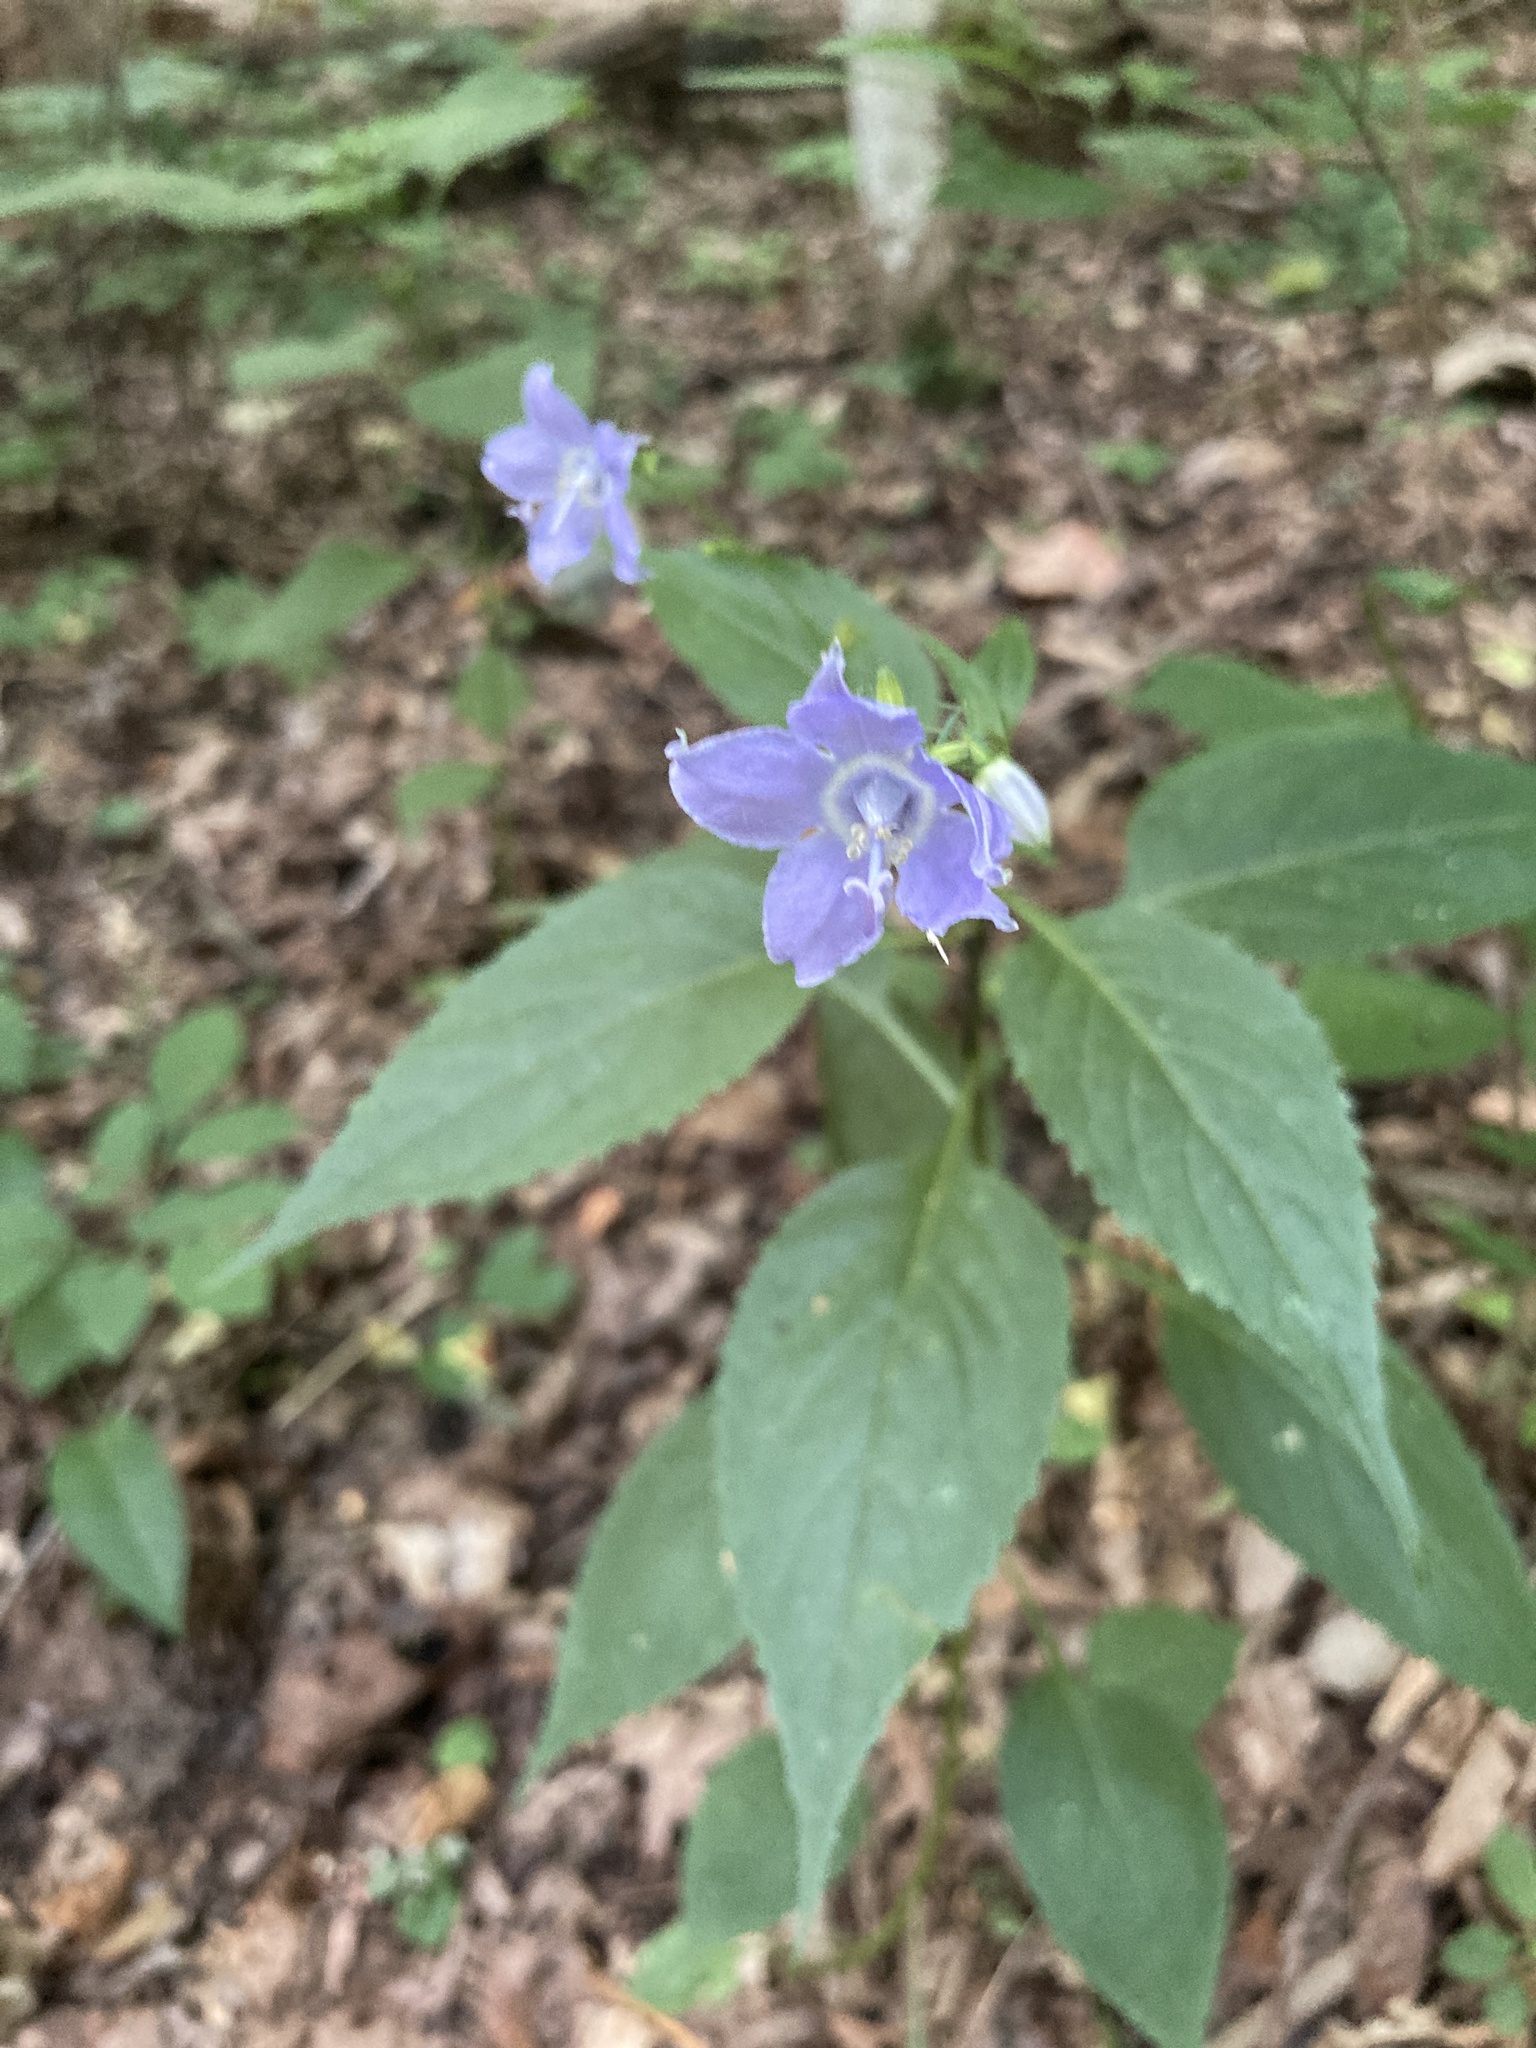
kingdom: Plantae
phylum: Tracheophyta
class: Magnoliopsida
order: Asterales
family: Campanulaceae
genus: Campanulastrum
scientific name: Campanulastrum americanum
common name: American bellflower
